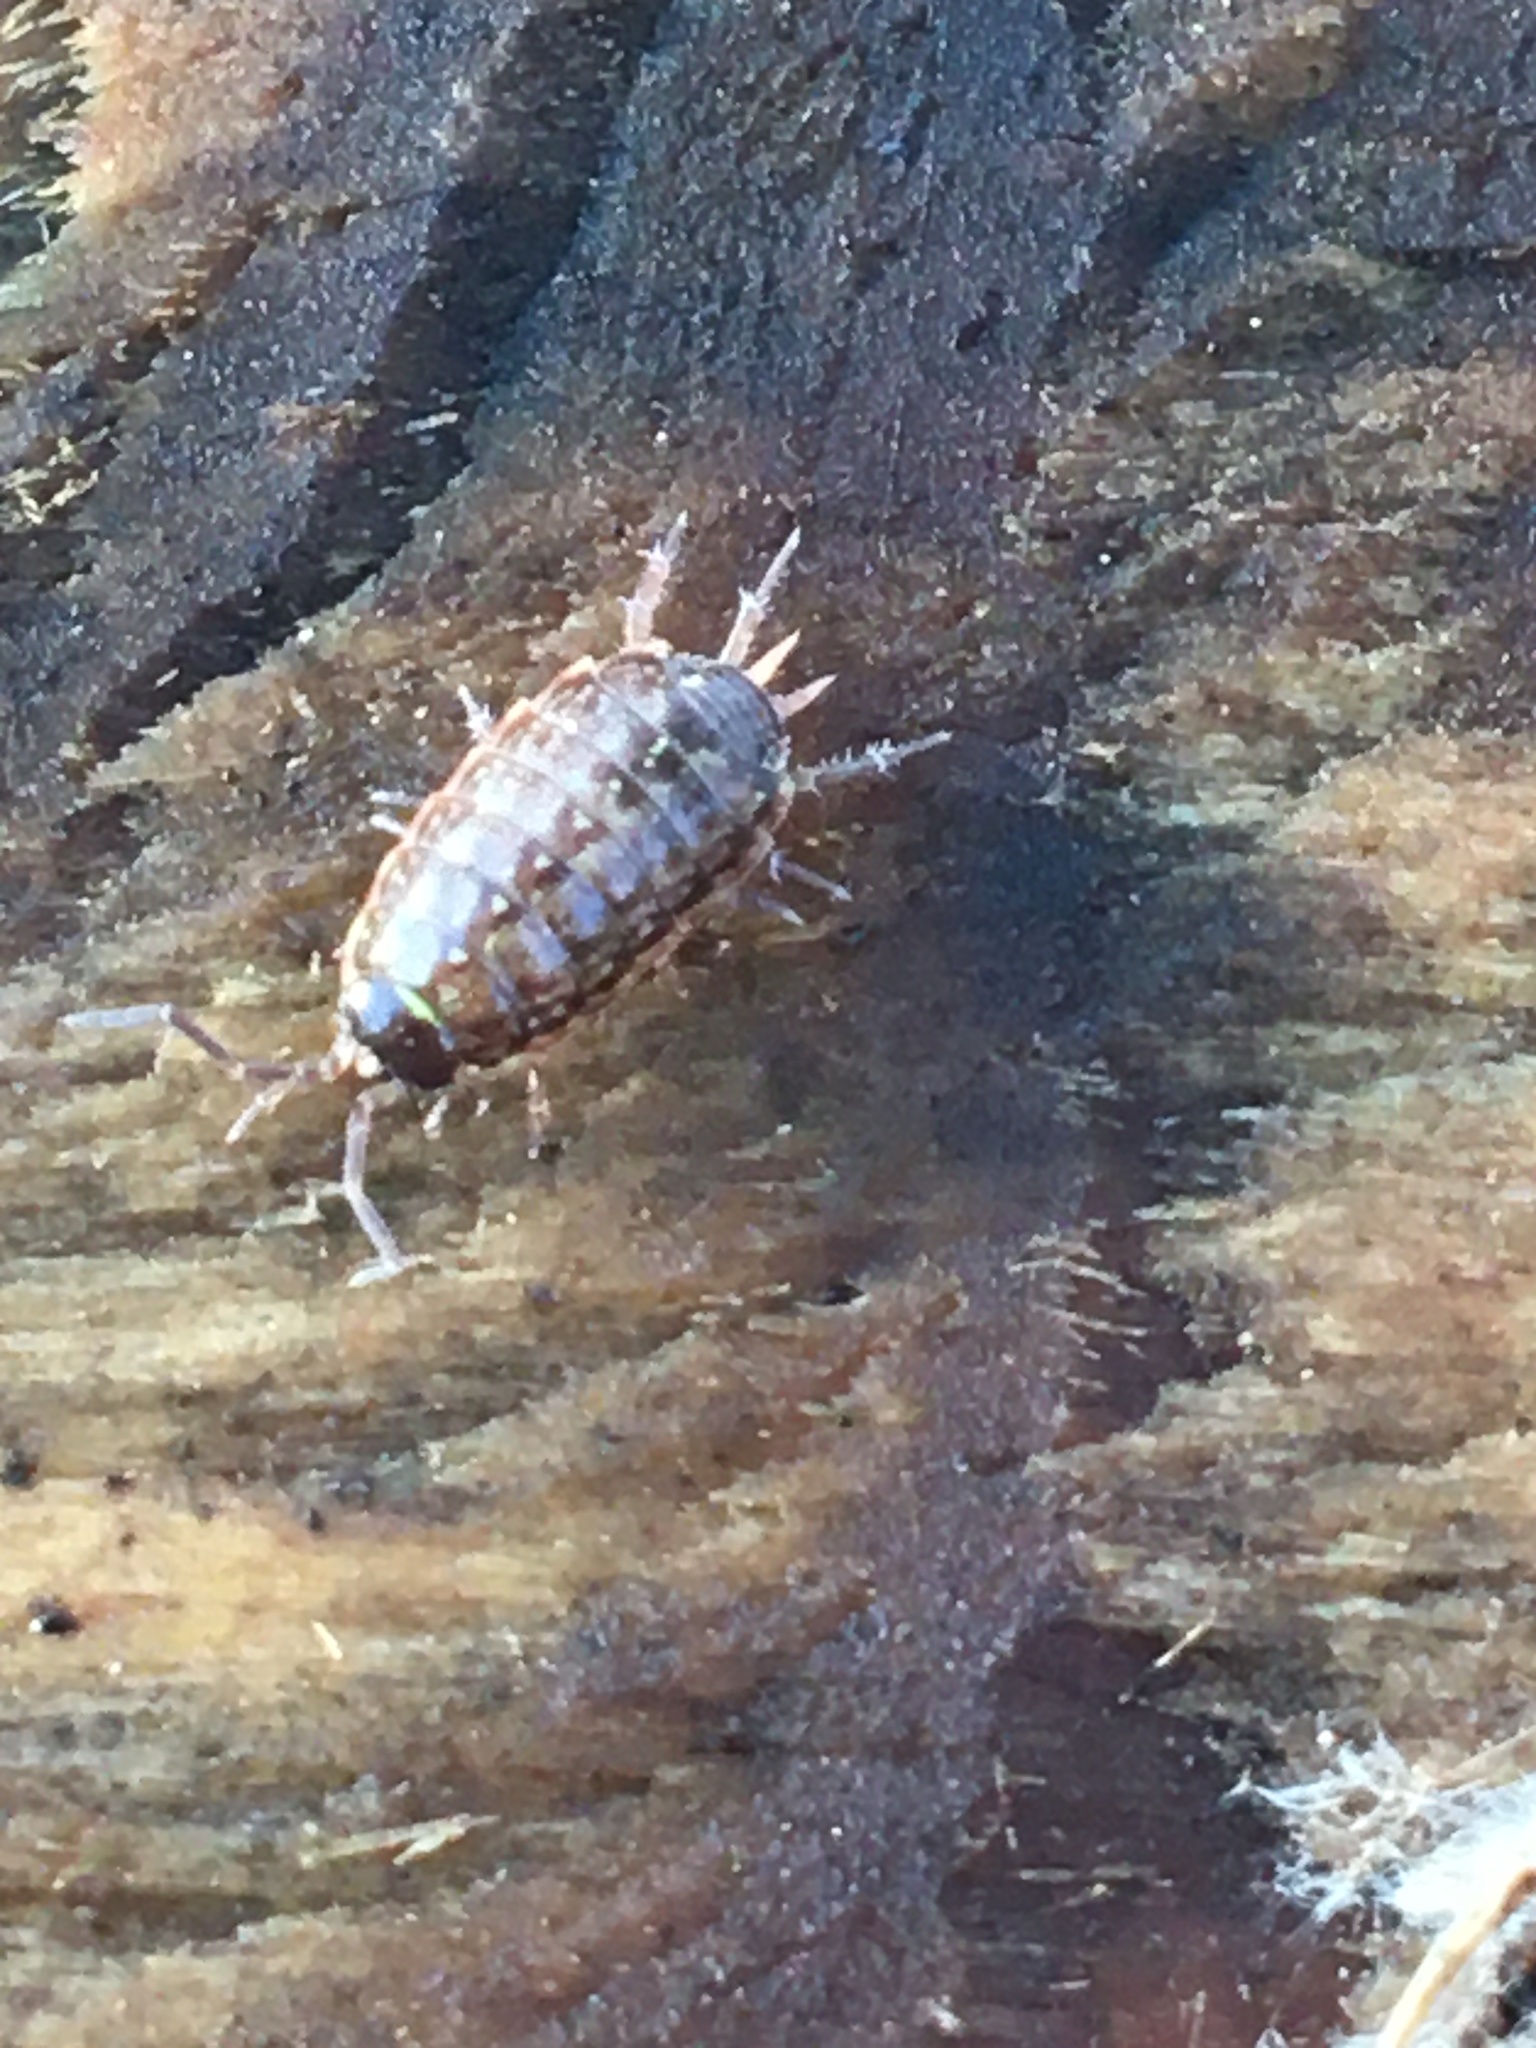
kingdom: Animalia
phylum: Arthropoda
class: Malacostraca
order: Isopoda
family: Philosciidae
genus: Philoscia
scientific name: Philoscia muscorum
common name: Common striped woodlouse
